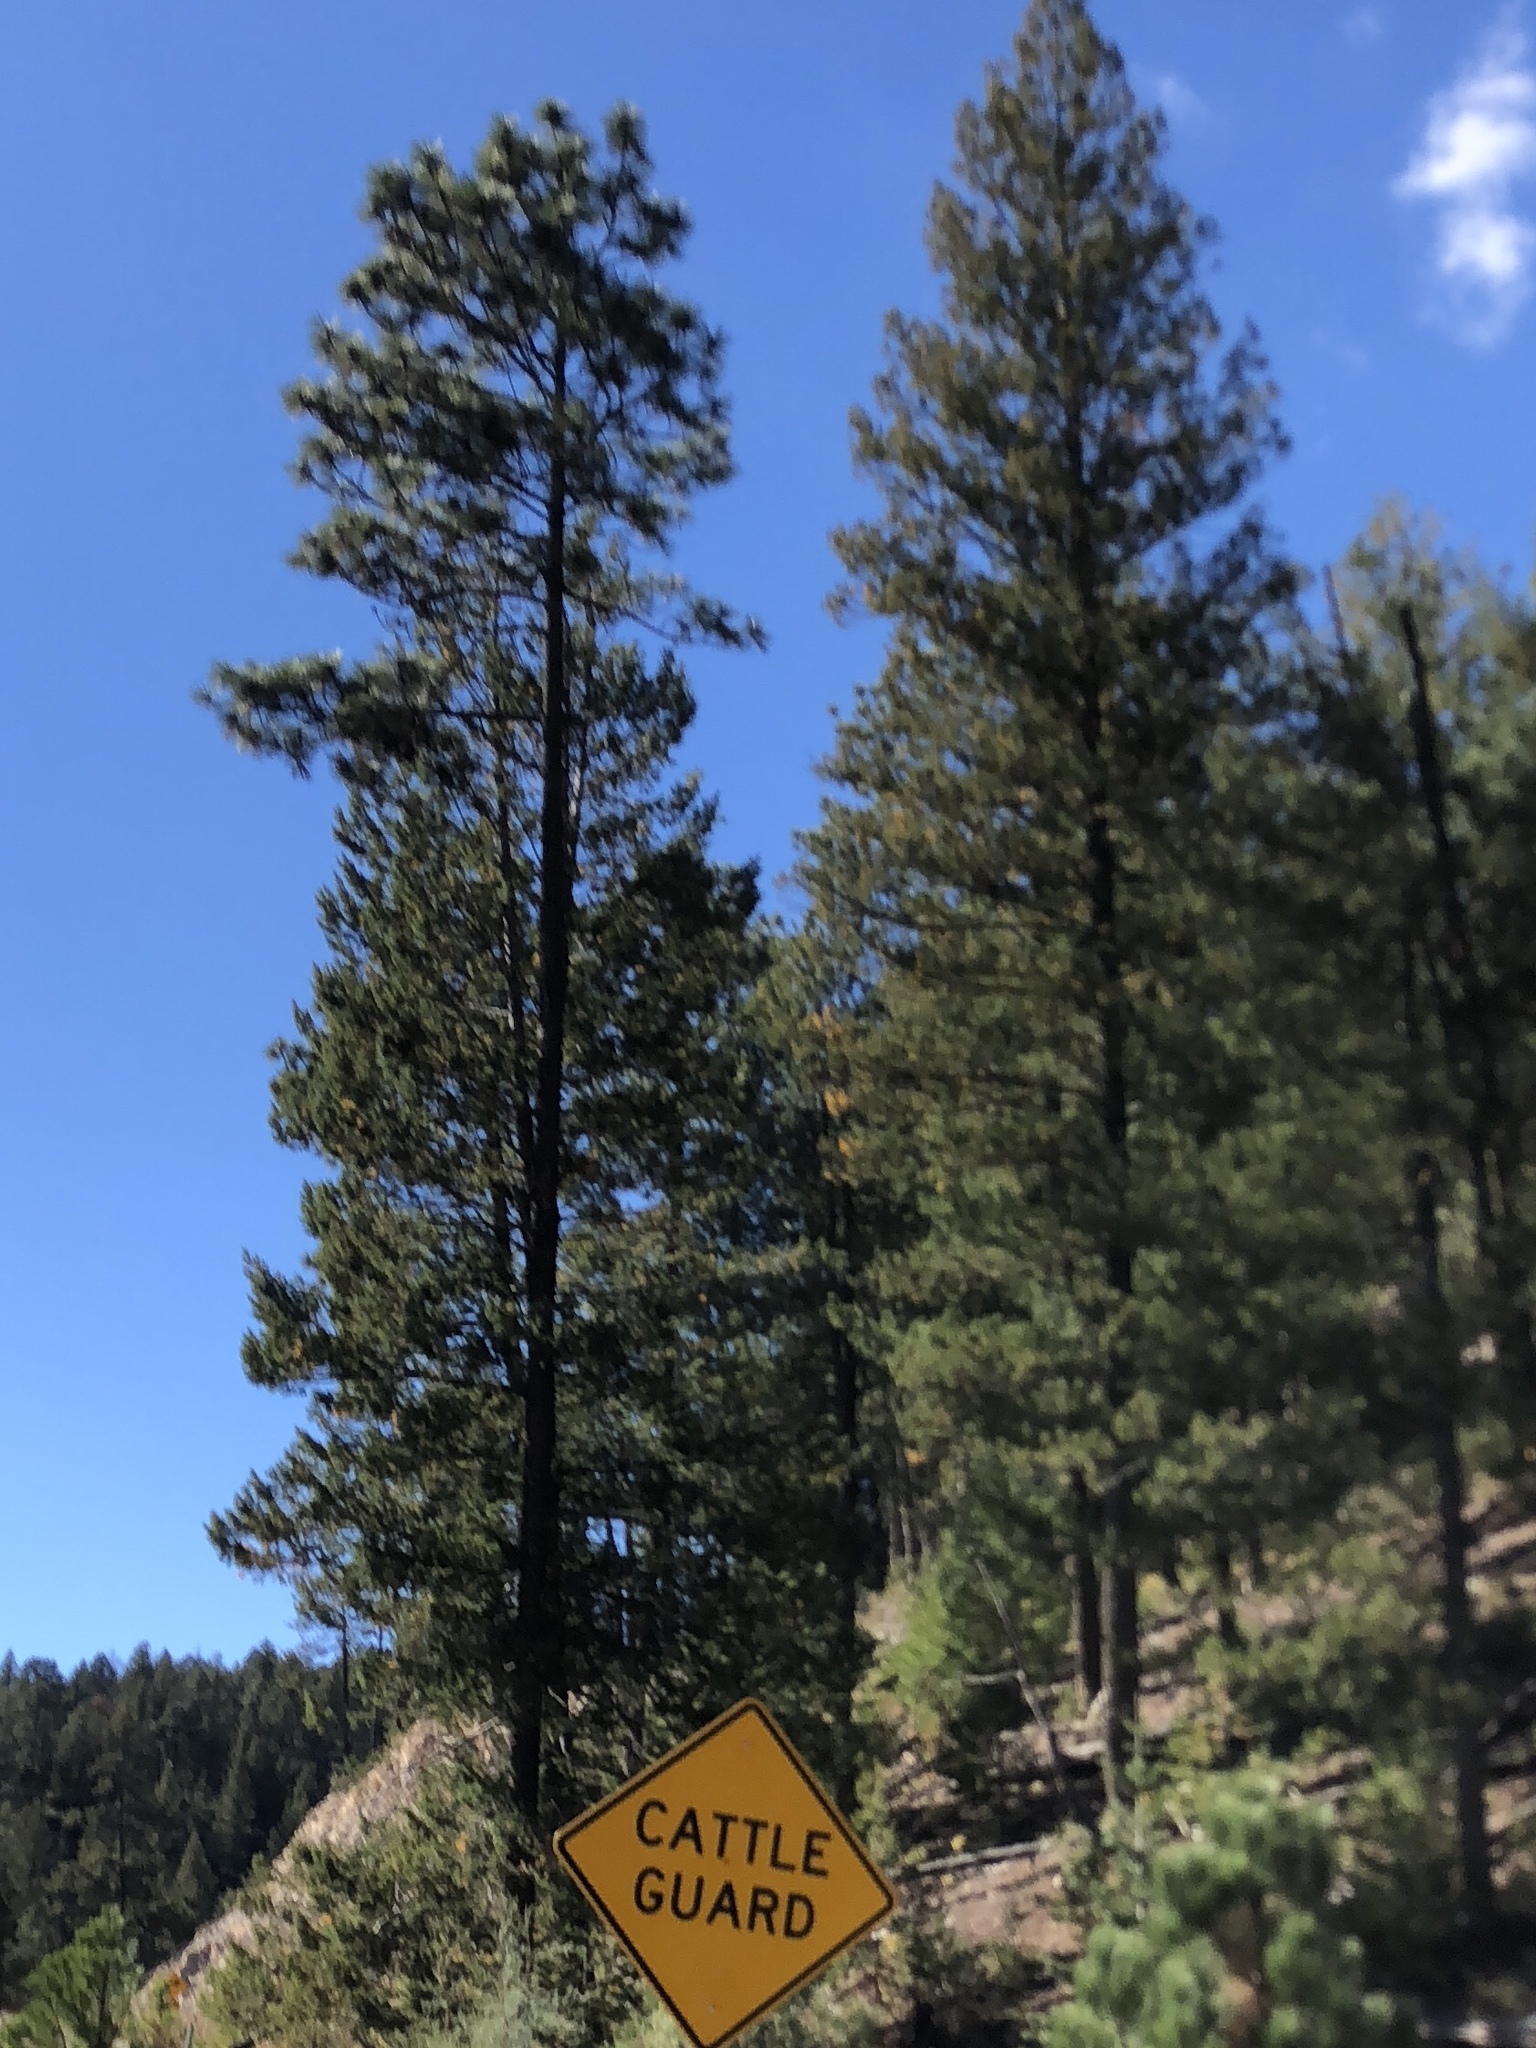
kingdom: Plantae
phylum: Tracheophyta
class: Pinopsida
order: Pinales
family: Pinaceae
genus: Pinus
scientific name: Pinus ponderosa
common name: Western yellow-pine
